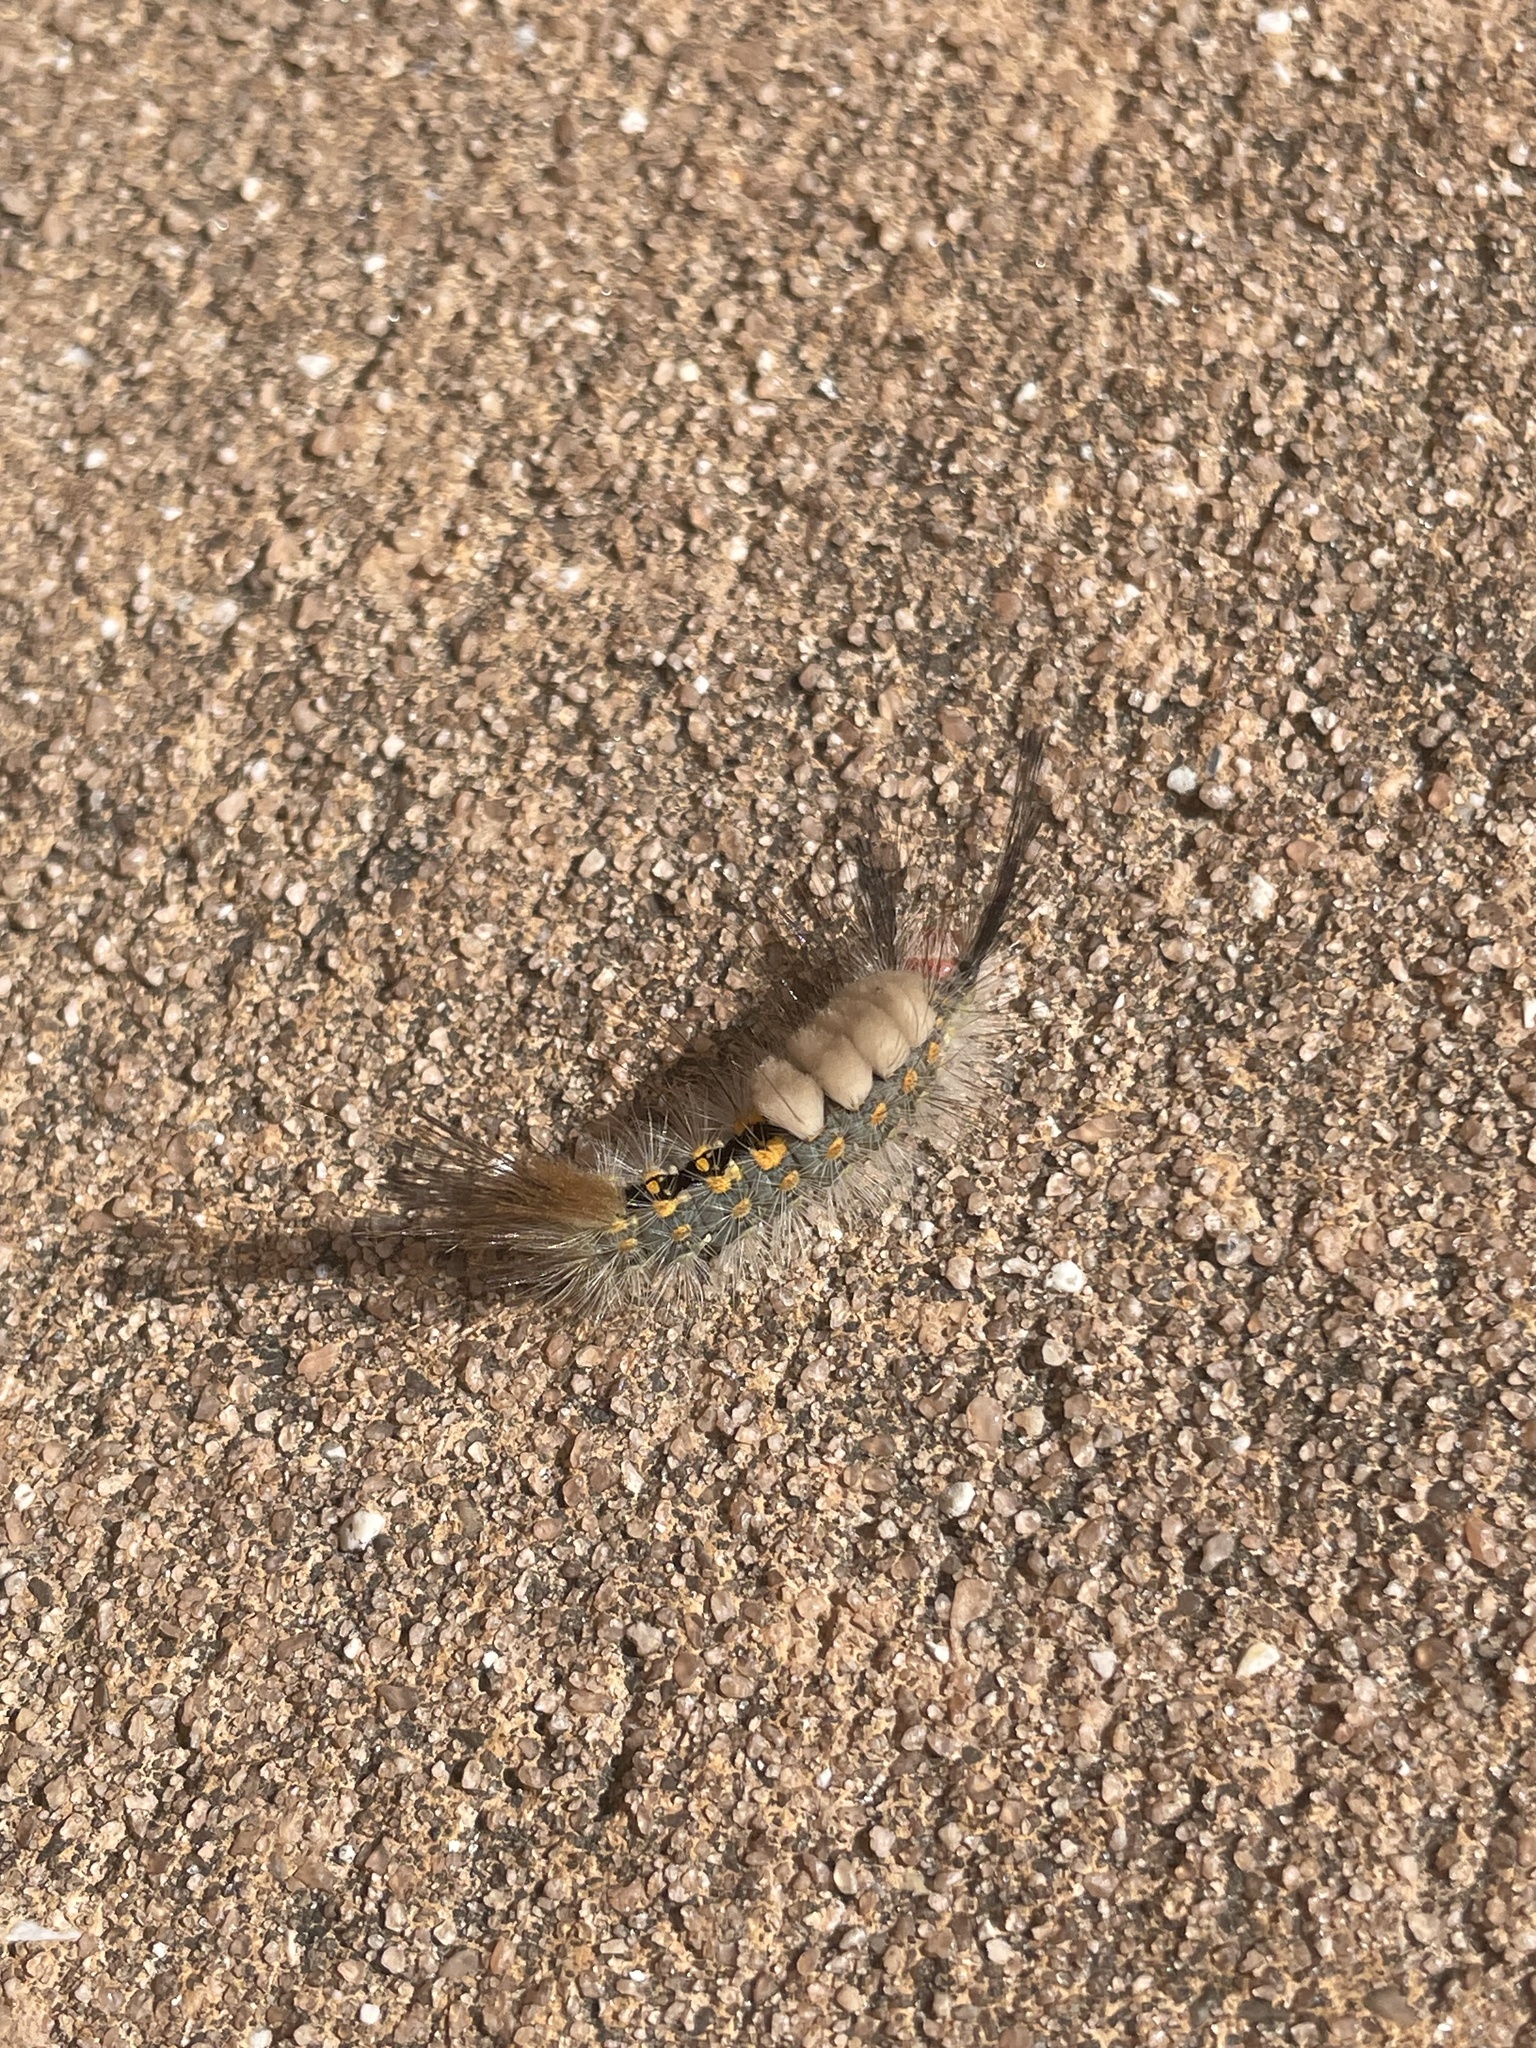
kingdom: Animalia
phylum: Arthropoda
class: Insecta
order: Lepidoptera
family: Erebidae
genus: Orgyia
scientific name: Orgyia detrita
